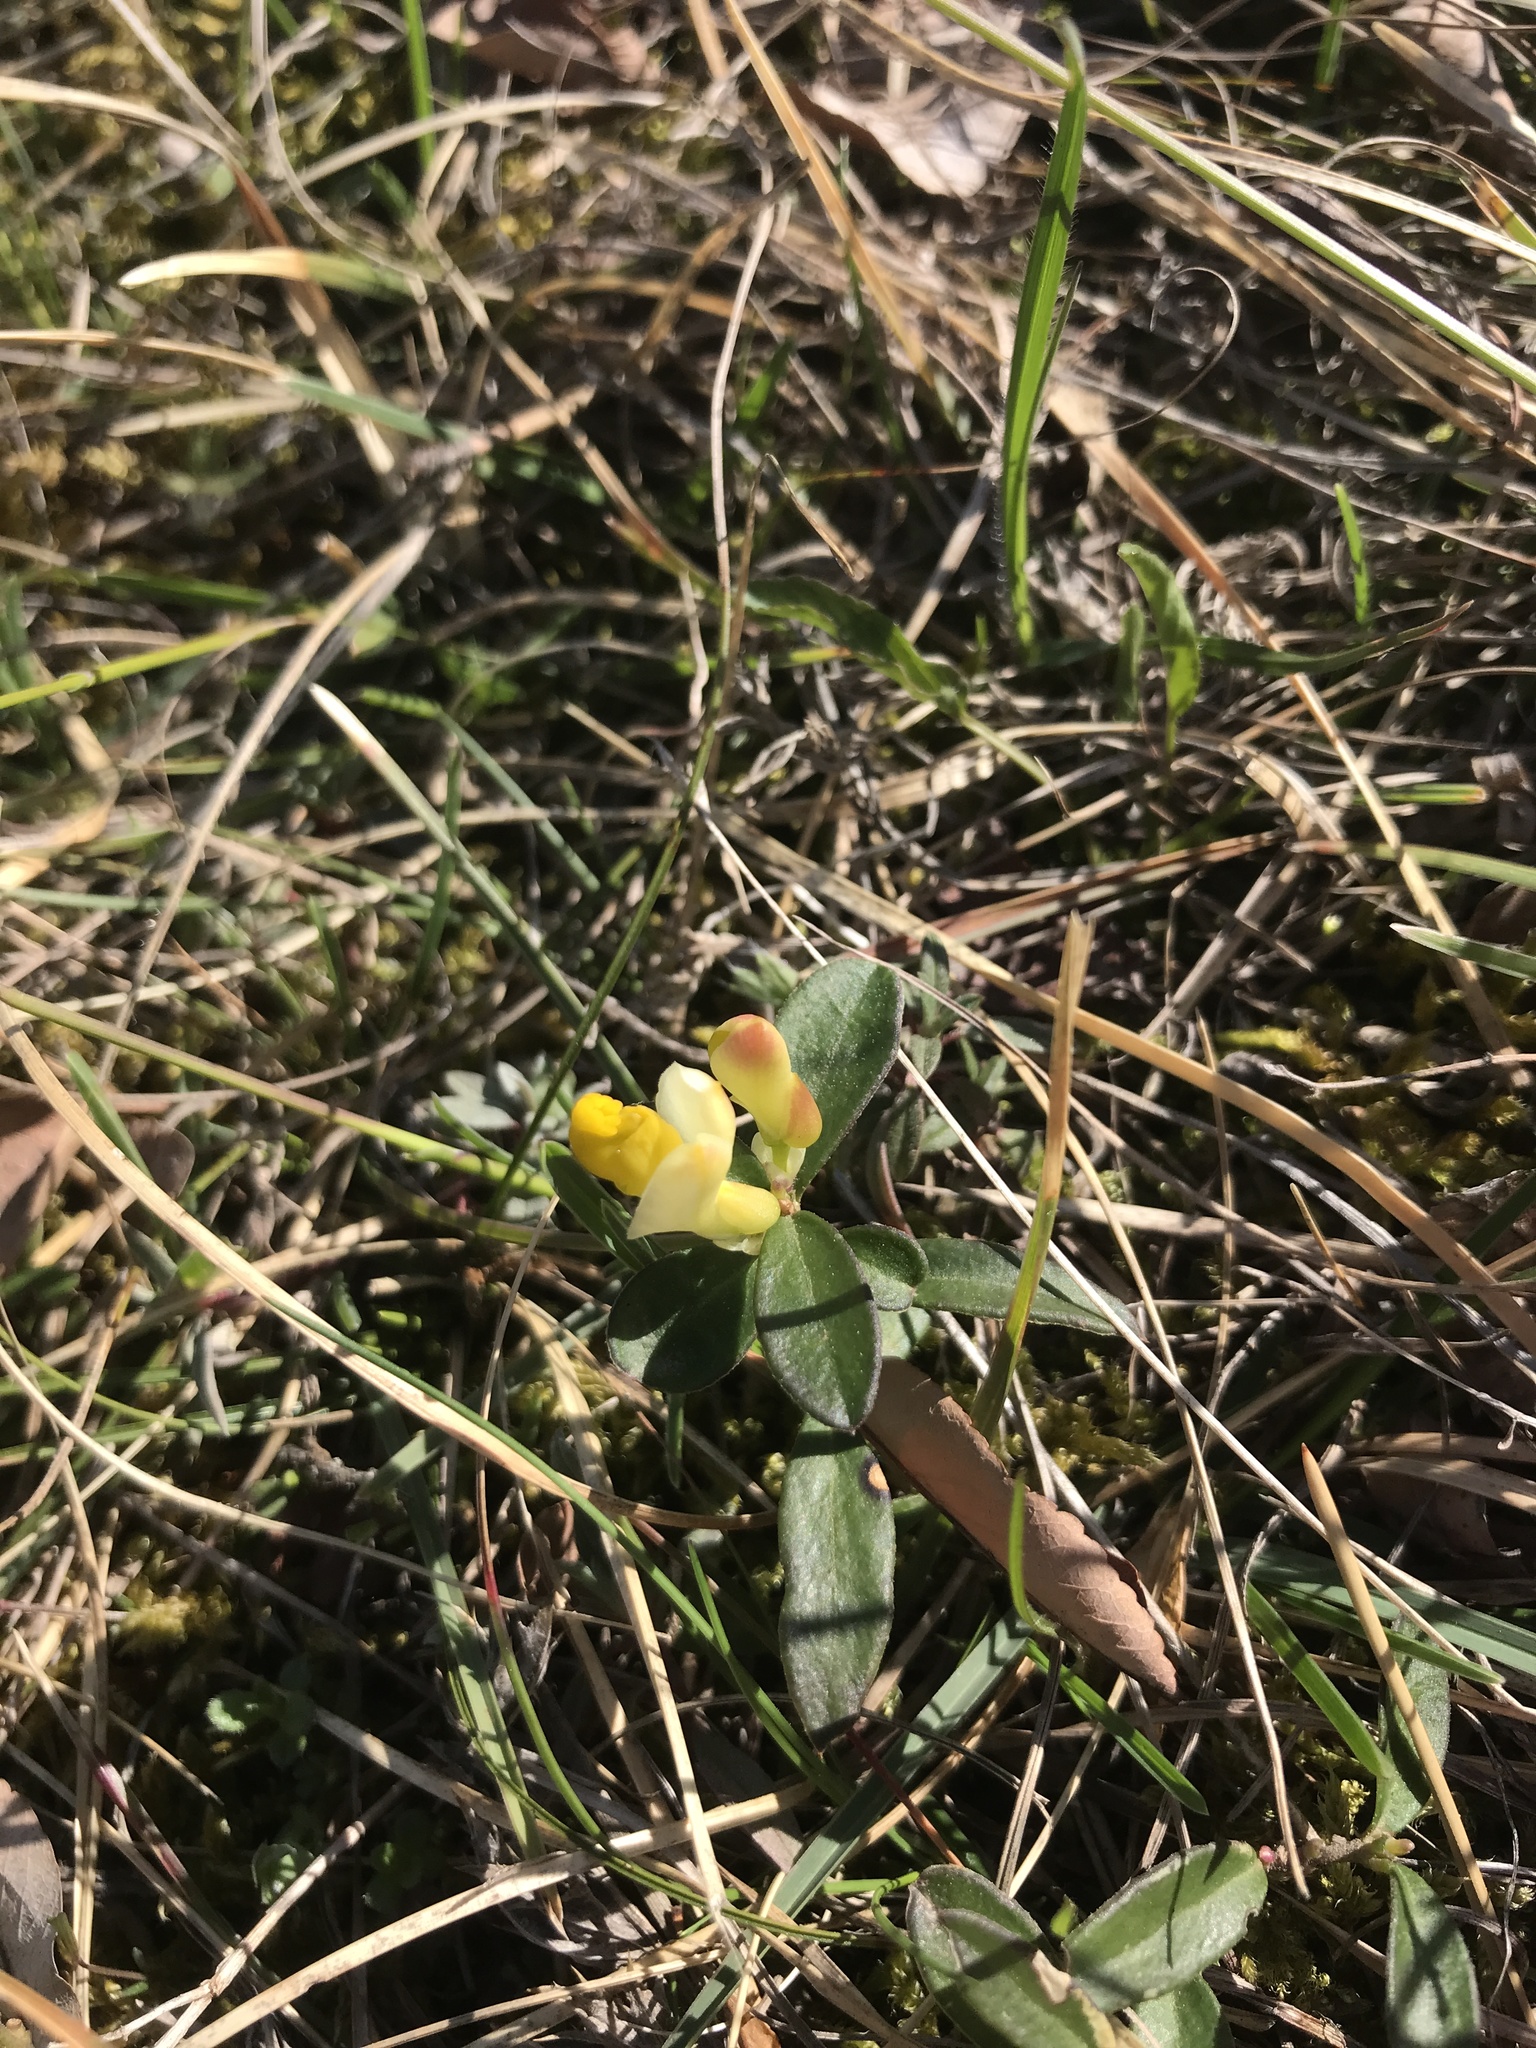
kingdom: Plantae
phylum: Tracheophyta
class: Magnoliopsida
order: Fabales
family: Polygalaceae
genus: Polygaloides
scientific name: Polygaloides chamaebuxus
